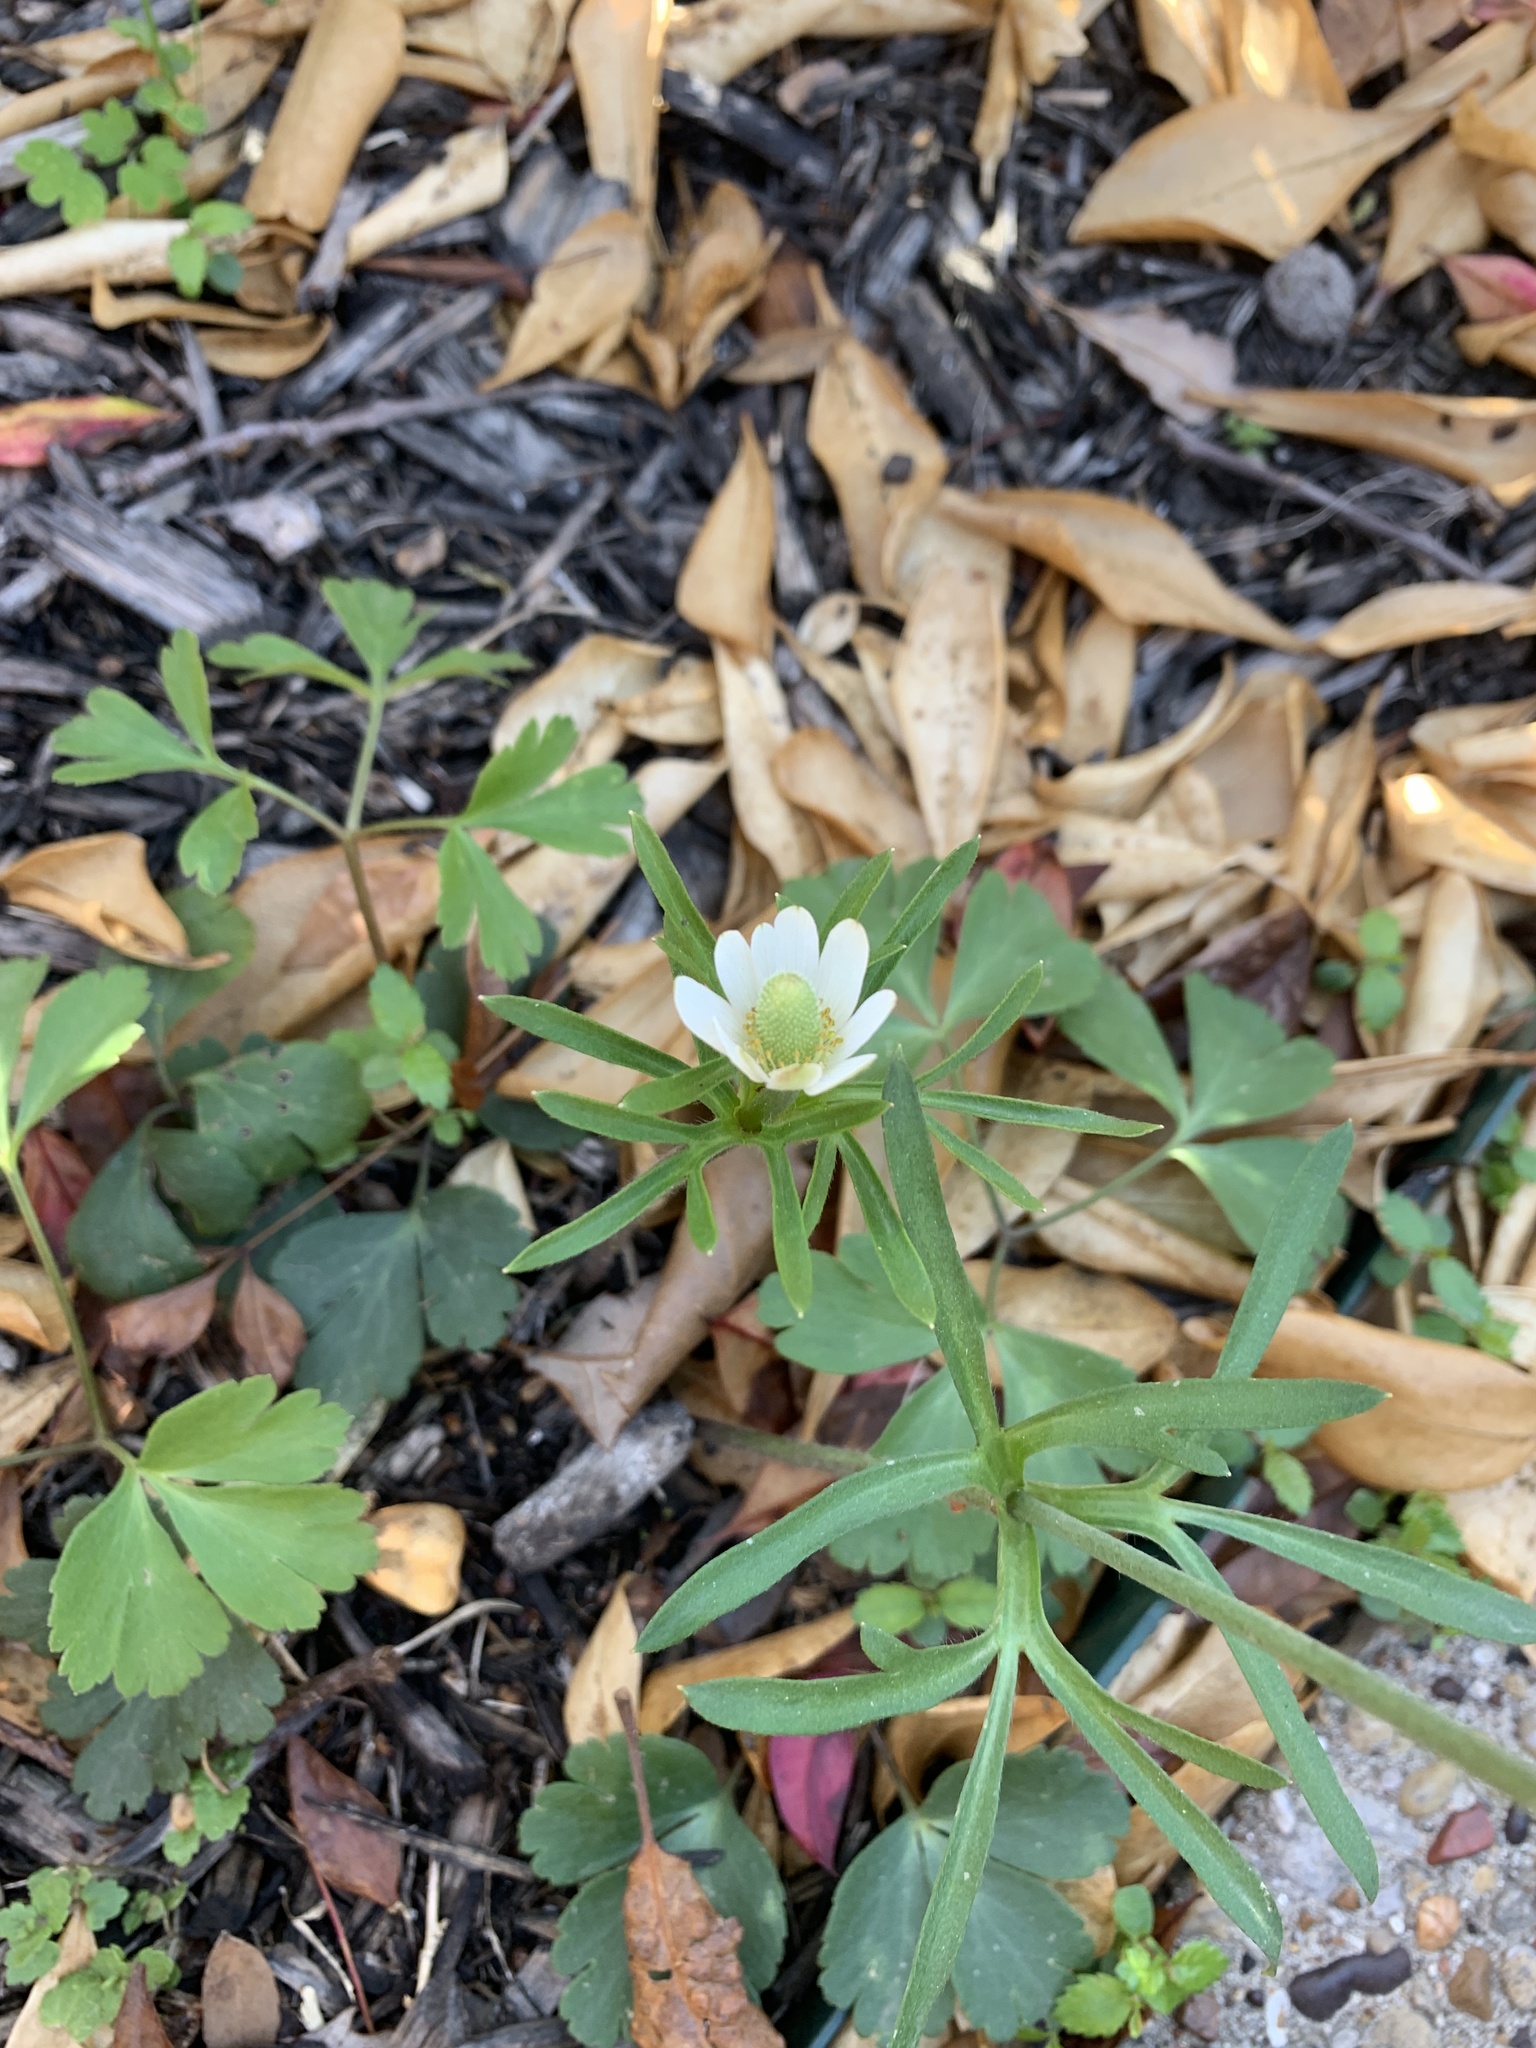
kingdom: Plantae
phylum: Tracheophyta
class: Magnoliopsida
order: Ranunculales
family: Ranunculaceae
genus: Anemone
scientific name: Anemone berlandieri
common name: Ten-petal anemone
